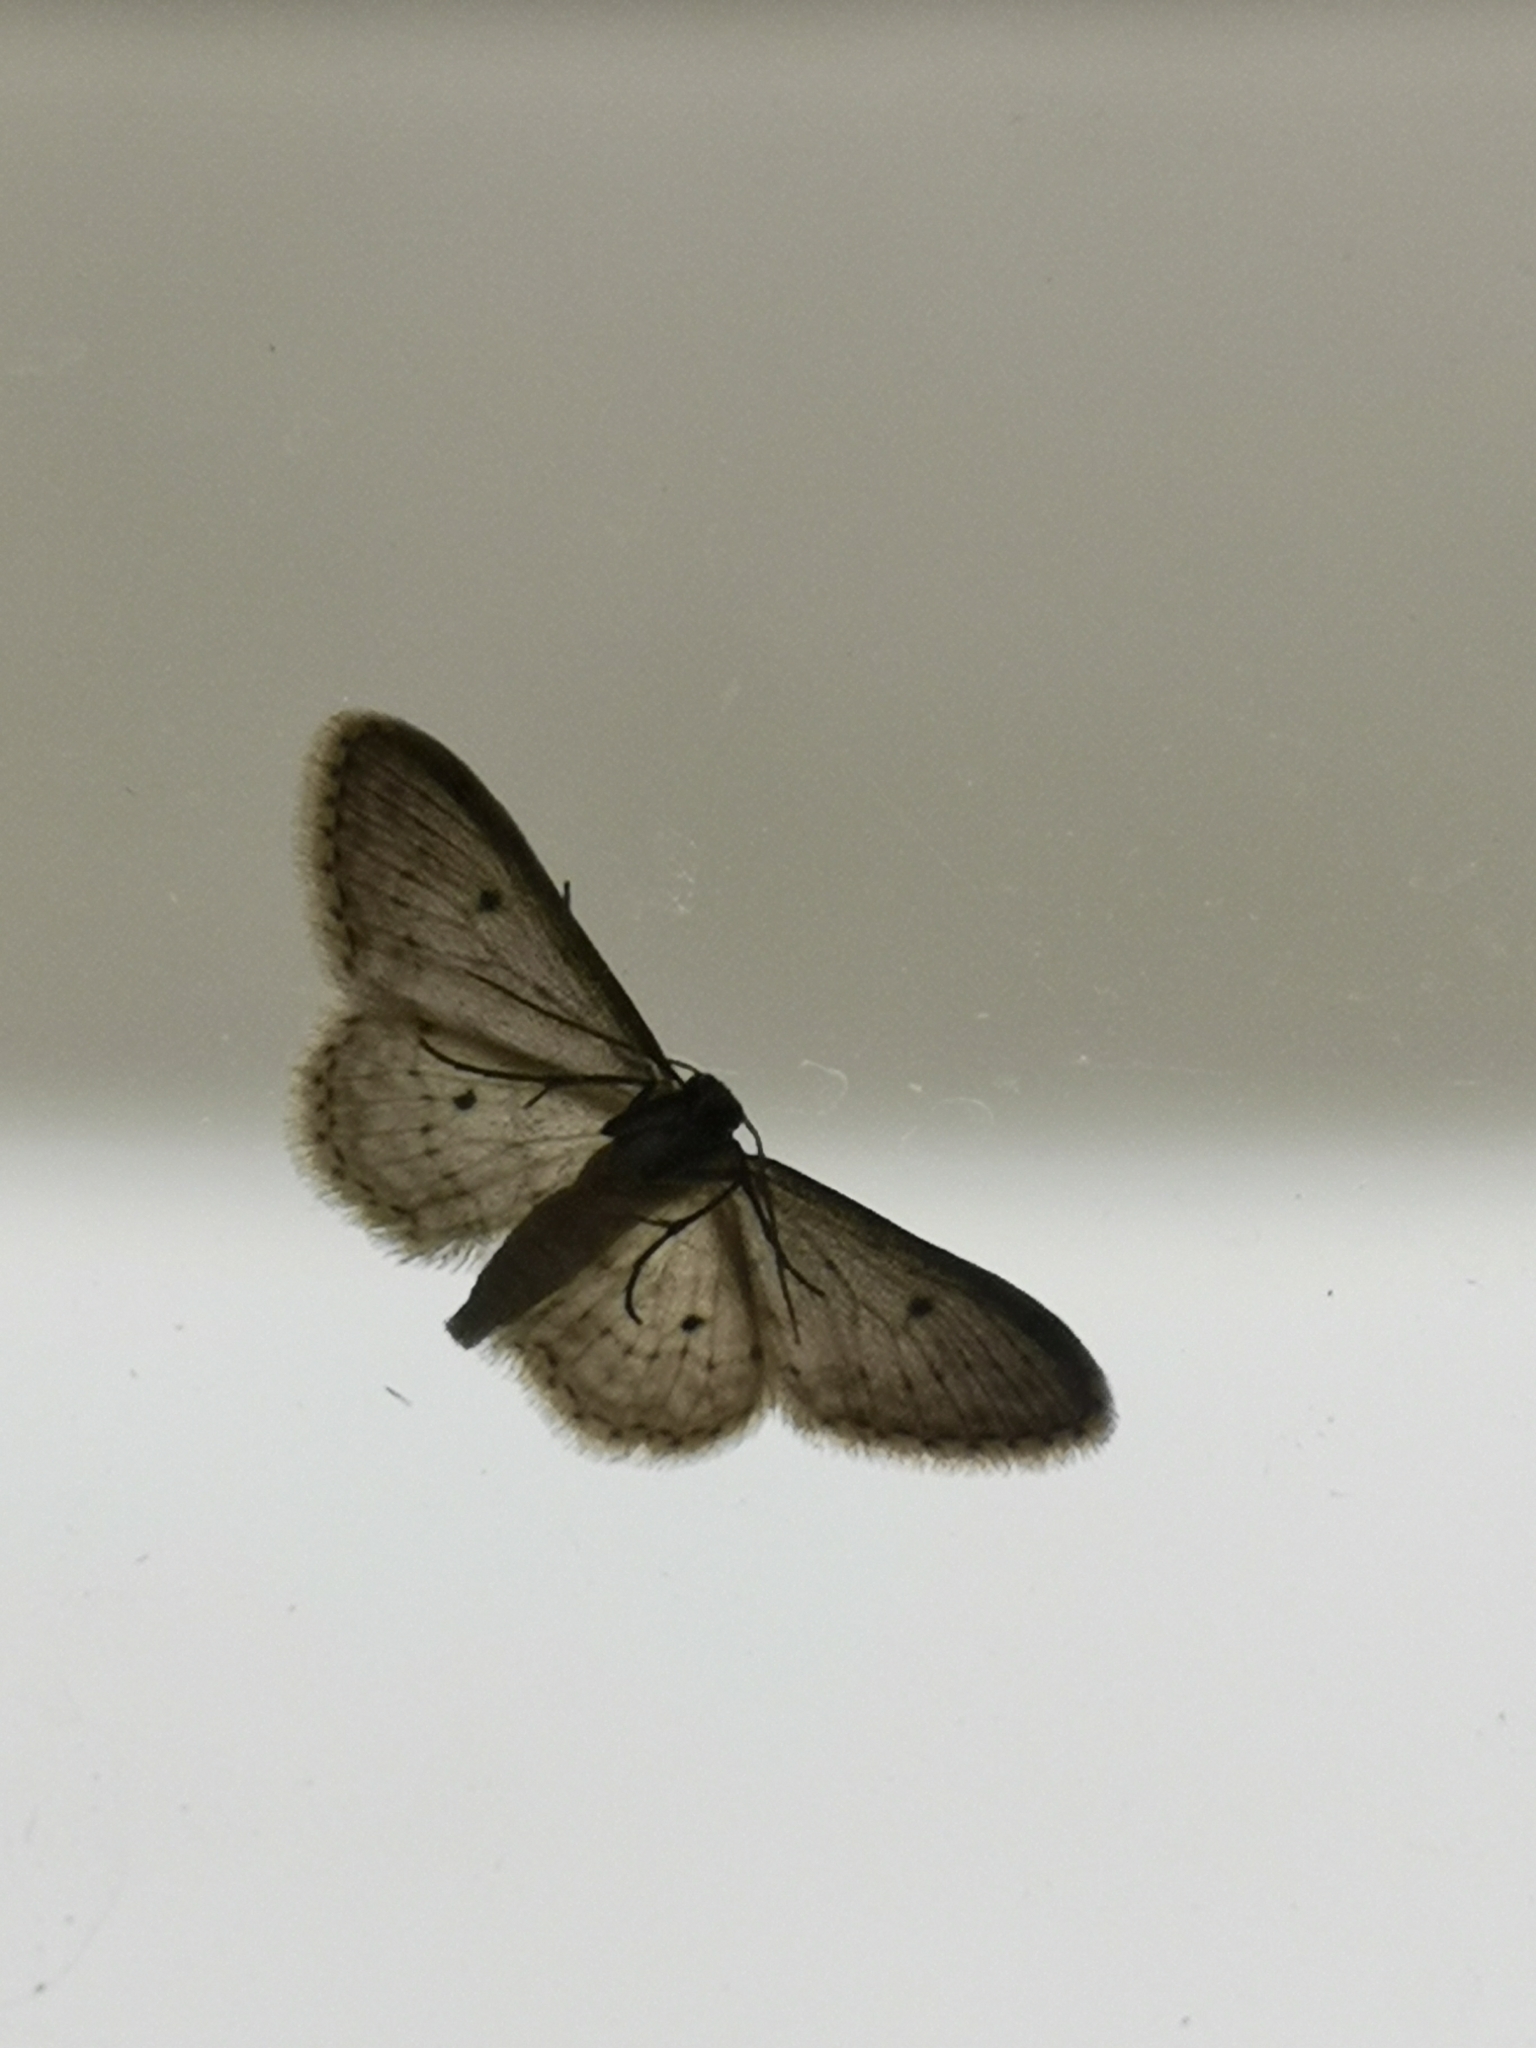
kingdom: Animalia
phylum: Arthropoda
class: Insecta
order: Lepidoptera
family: Geometridae
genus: Idaea
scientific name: Idaea seriata
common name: Small dusty wave
